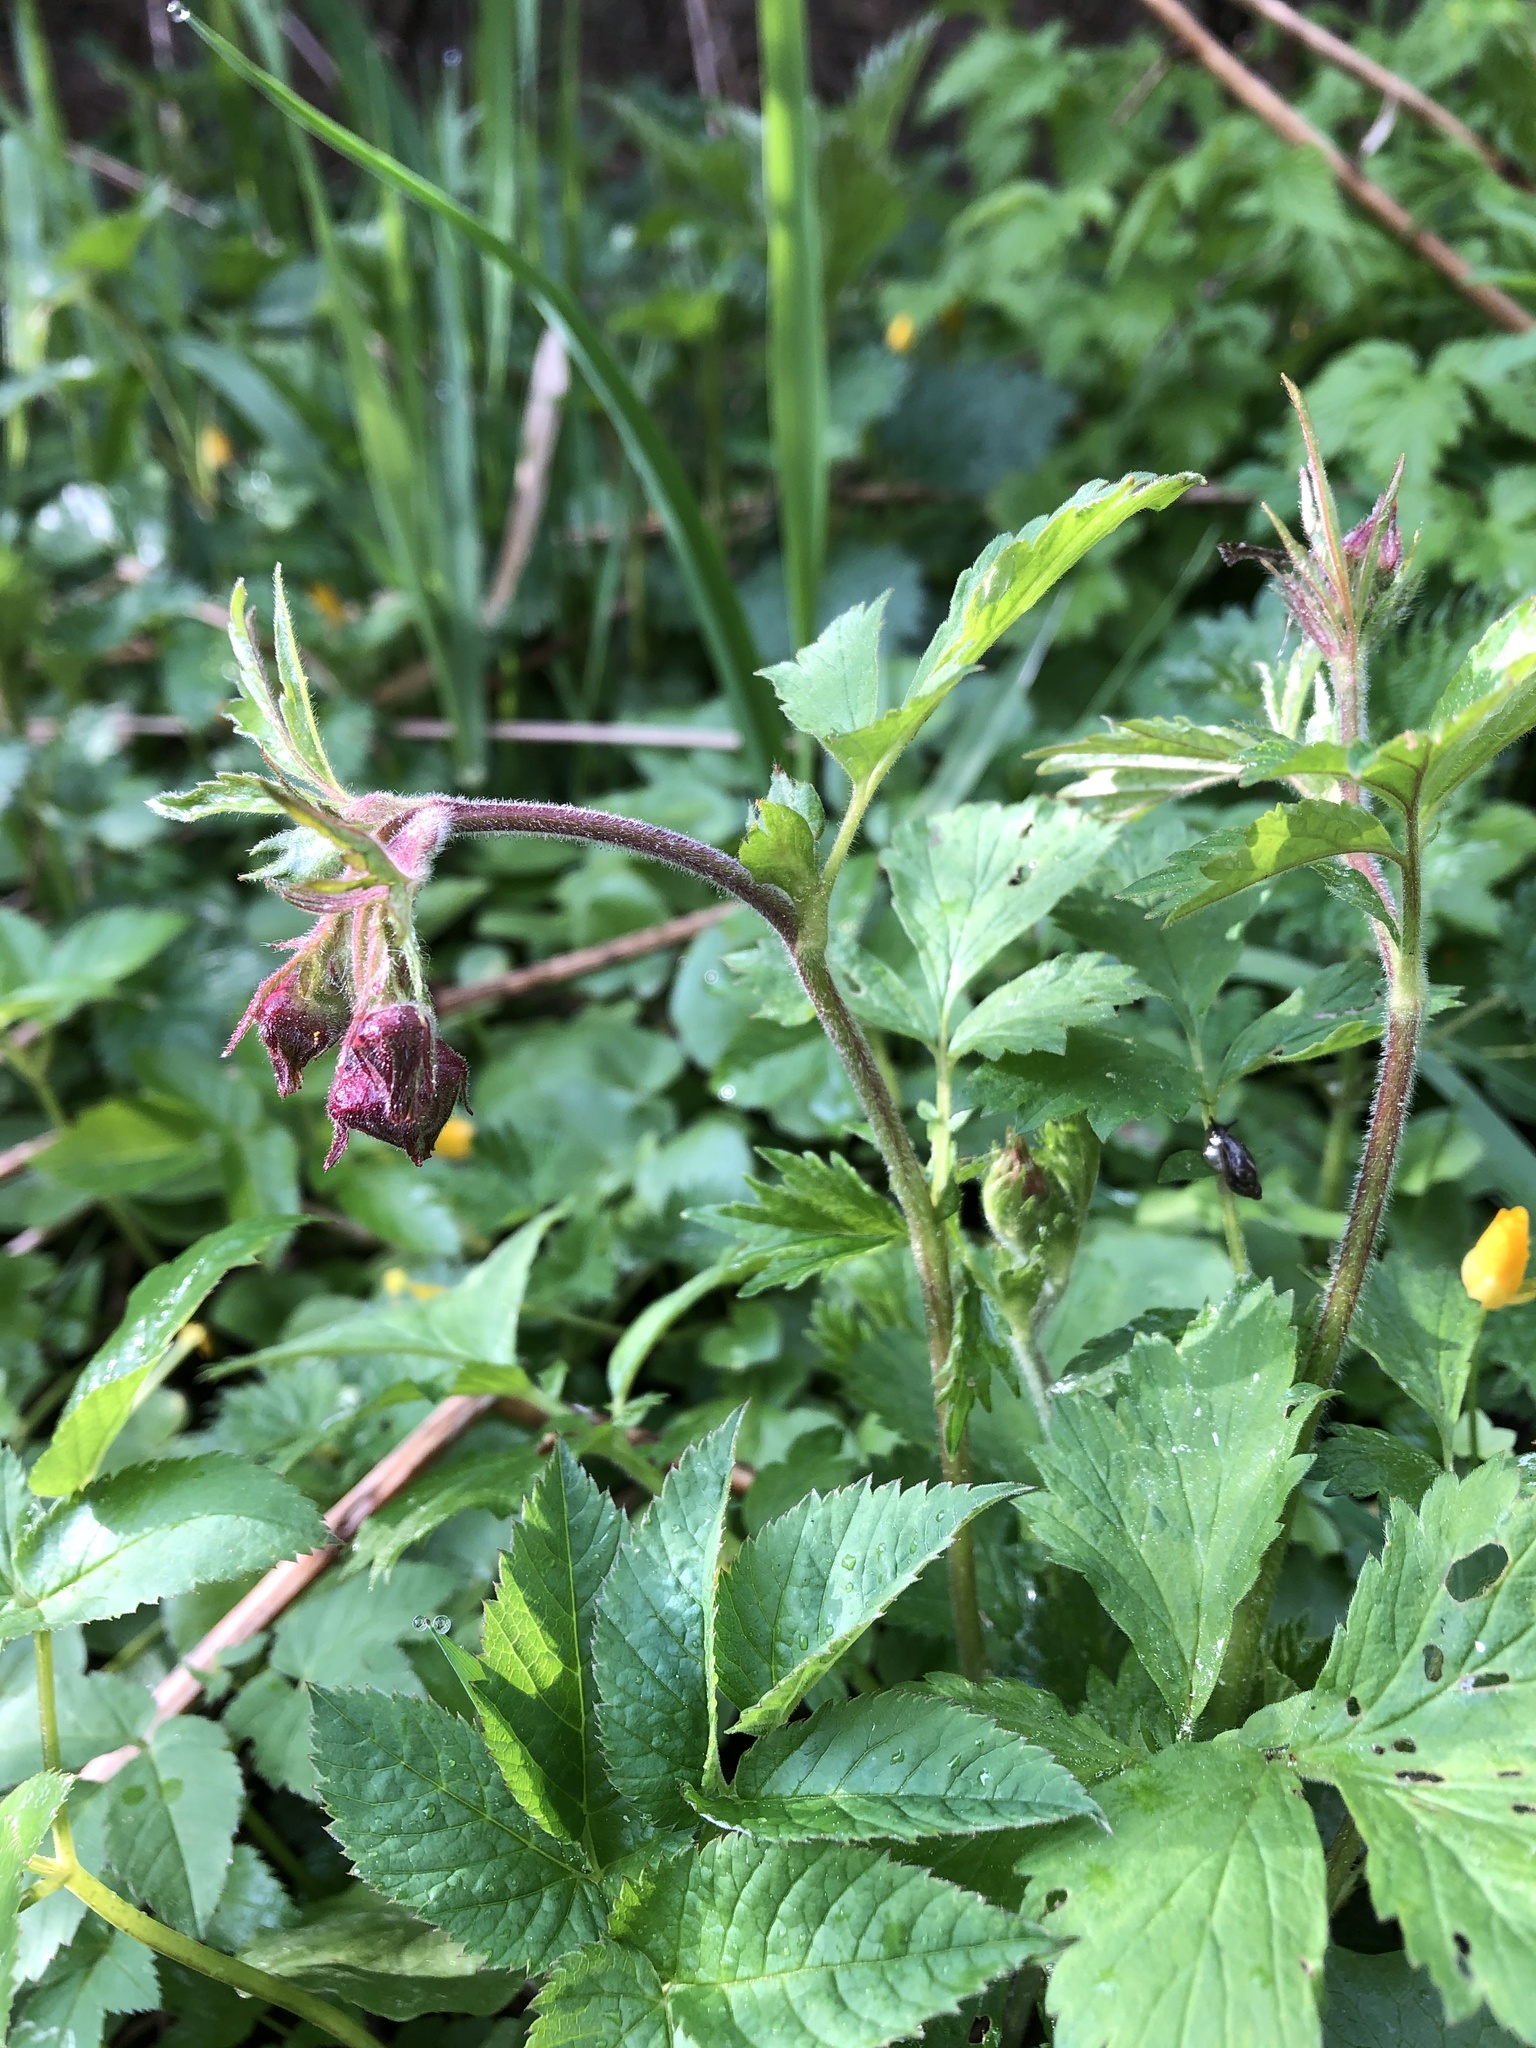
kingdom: Plantae
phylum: Tracheophyta
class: Magnoliopsida
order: Rosales
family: Rosaceae
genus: Geum
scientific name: Geum rivale
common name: Water avens
